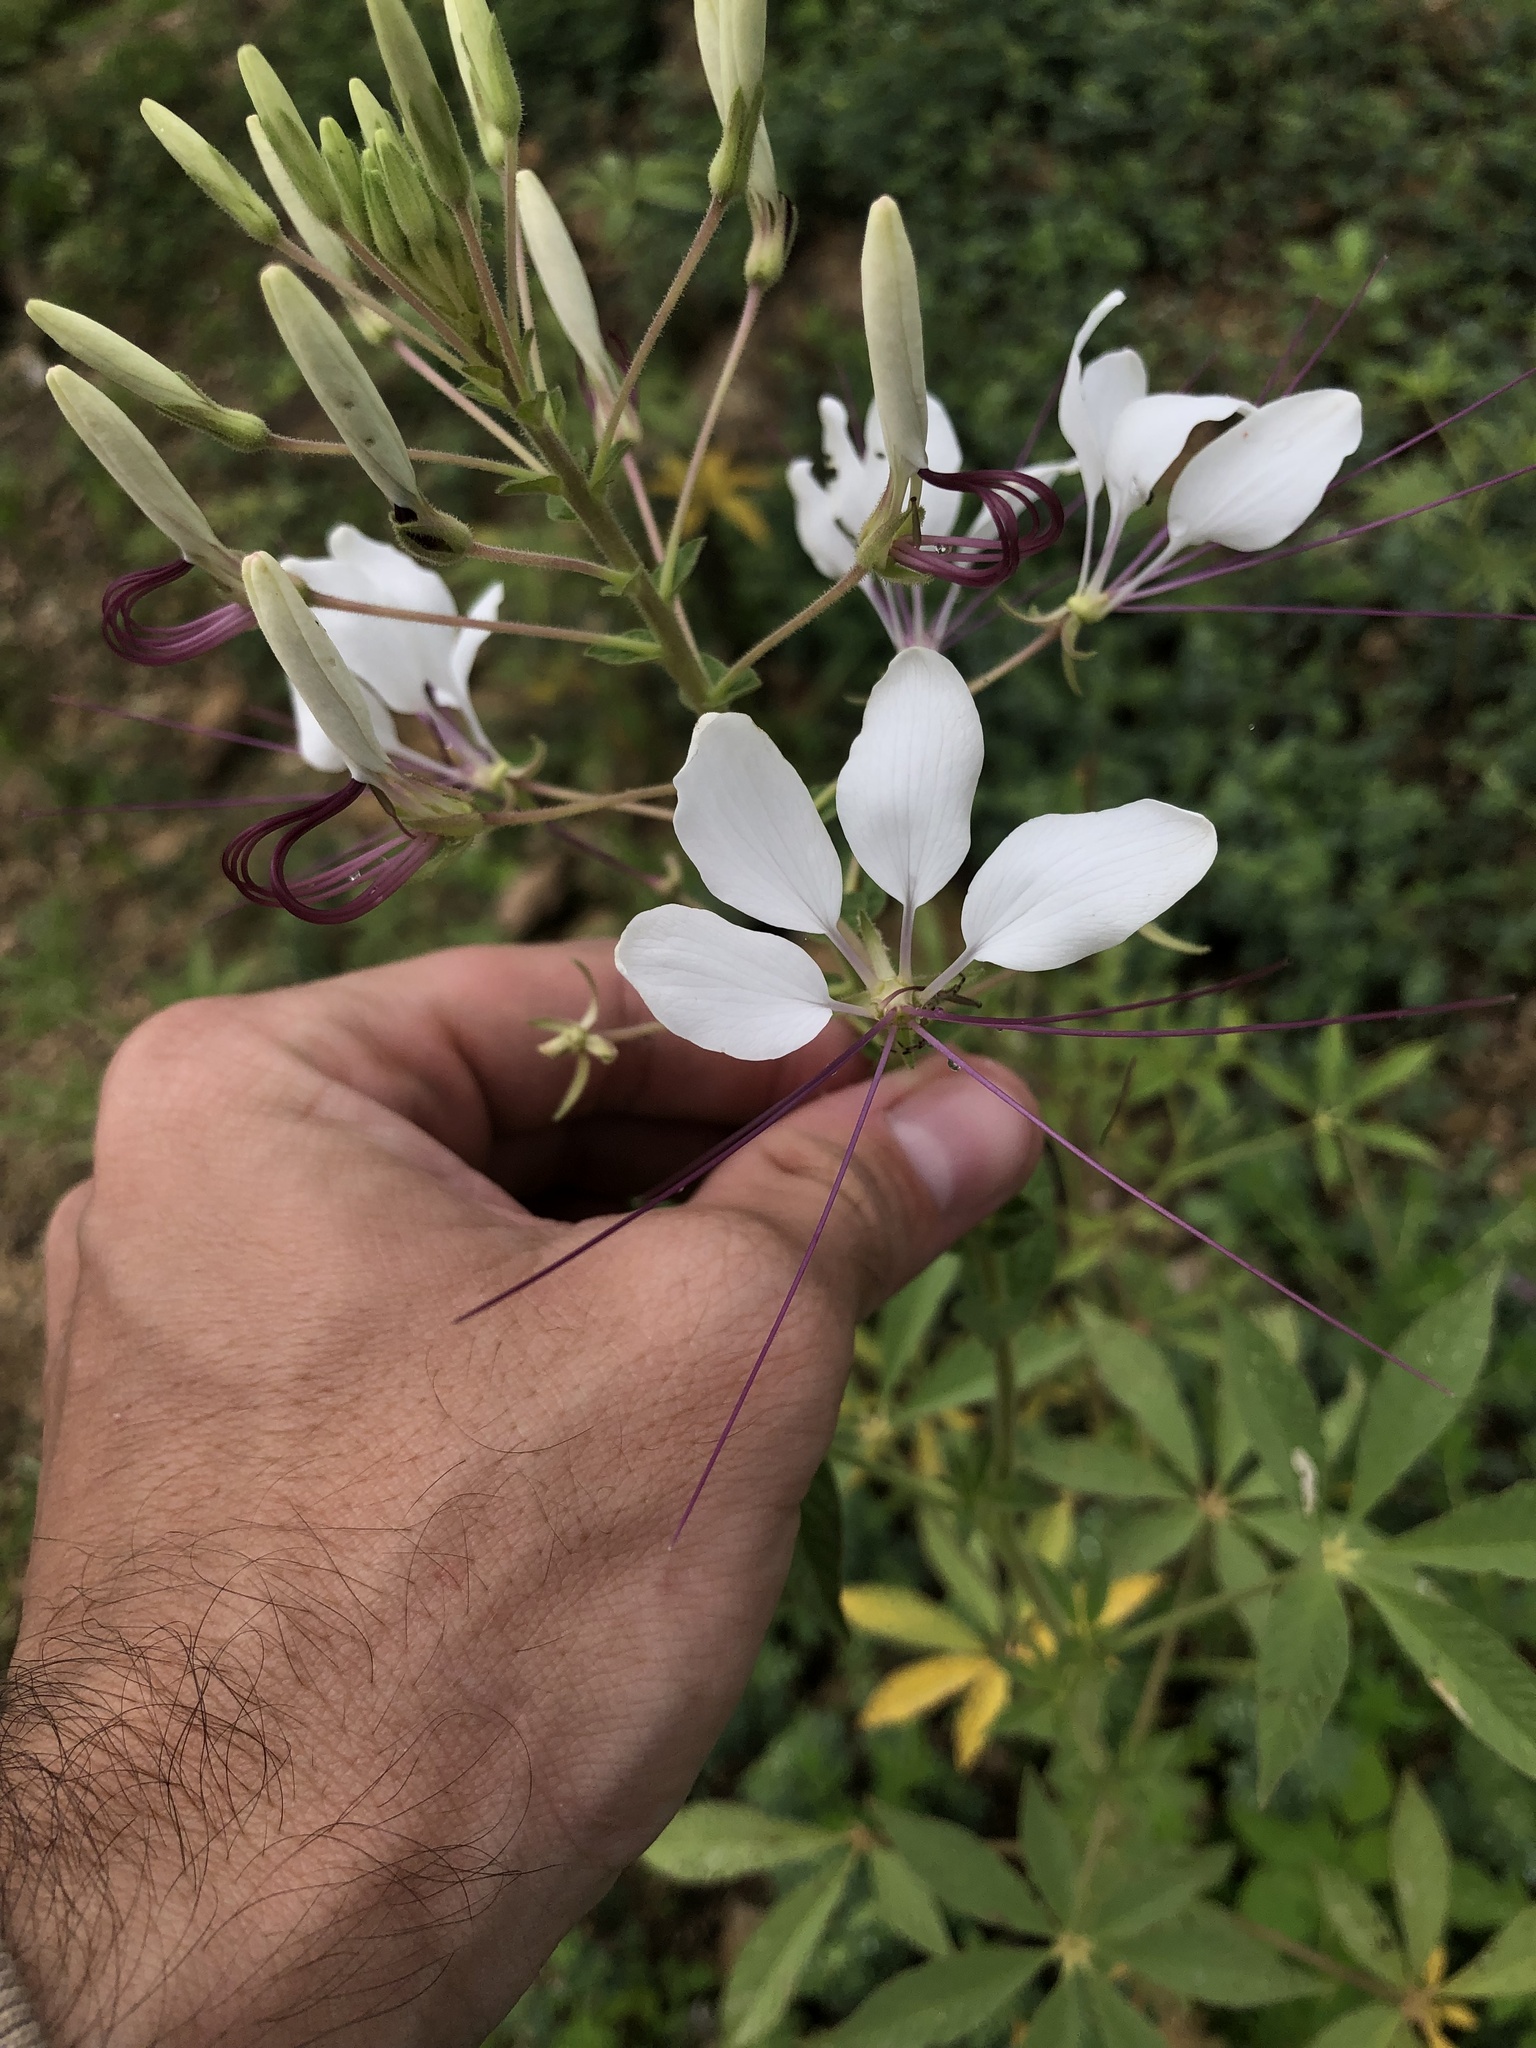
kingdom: Plantae
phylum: Tracheophyta
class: Magnoliopsida
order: Brassicales
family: Cleomaceae
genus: Tarenaya
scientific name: Tarenaya longicarpa
